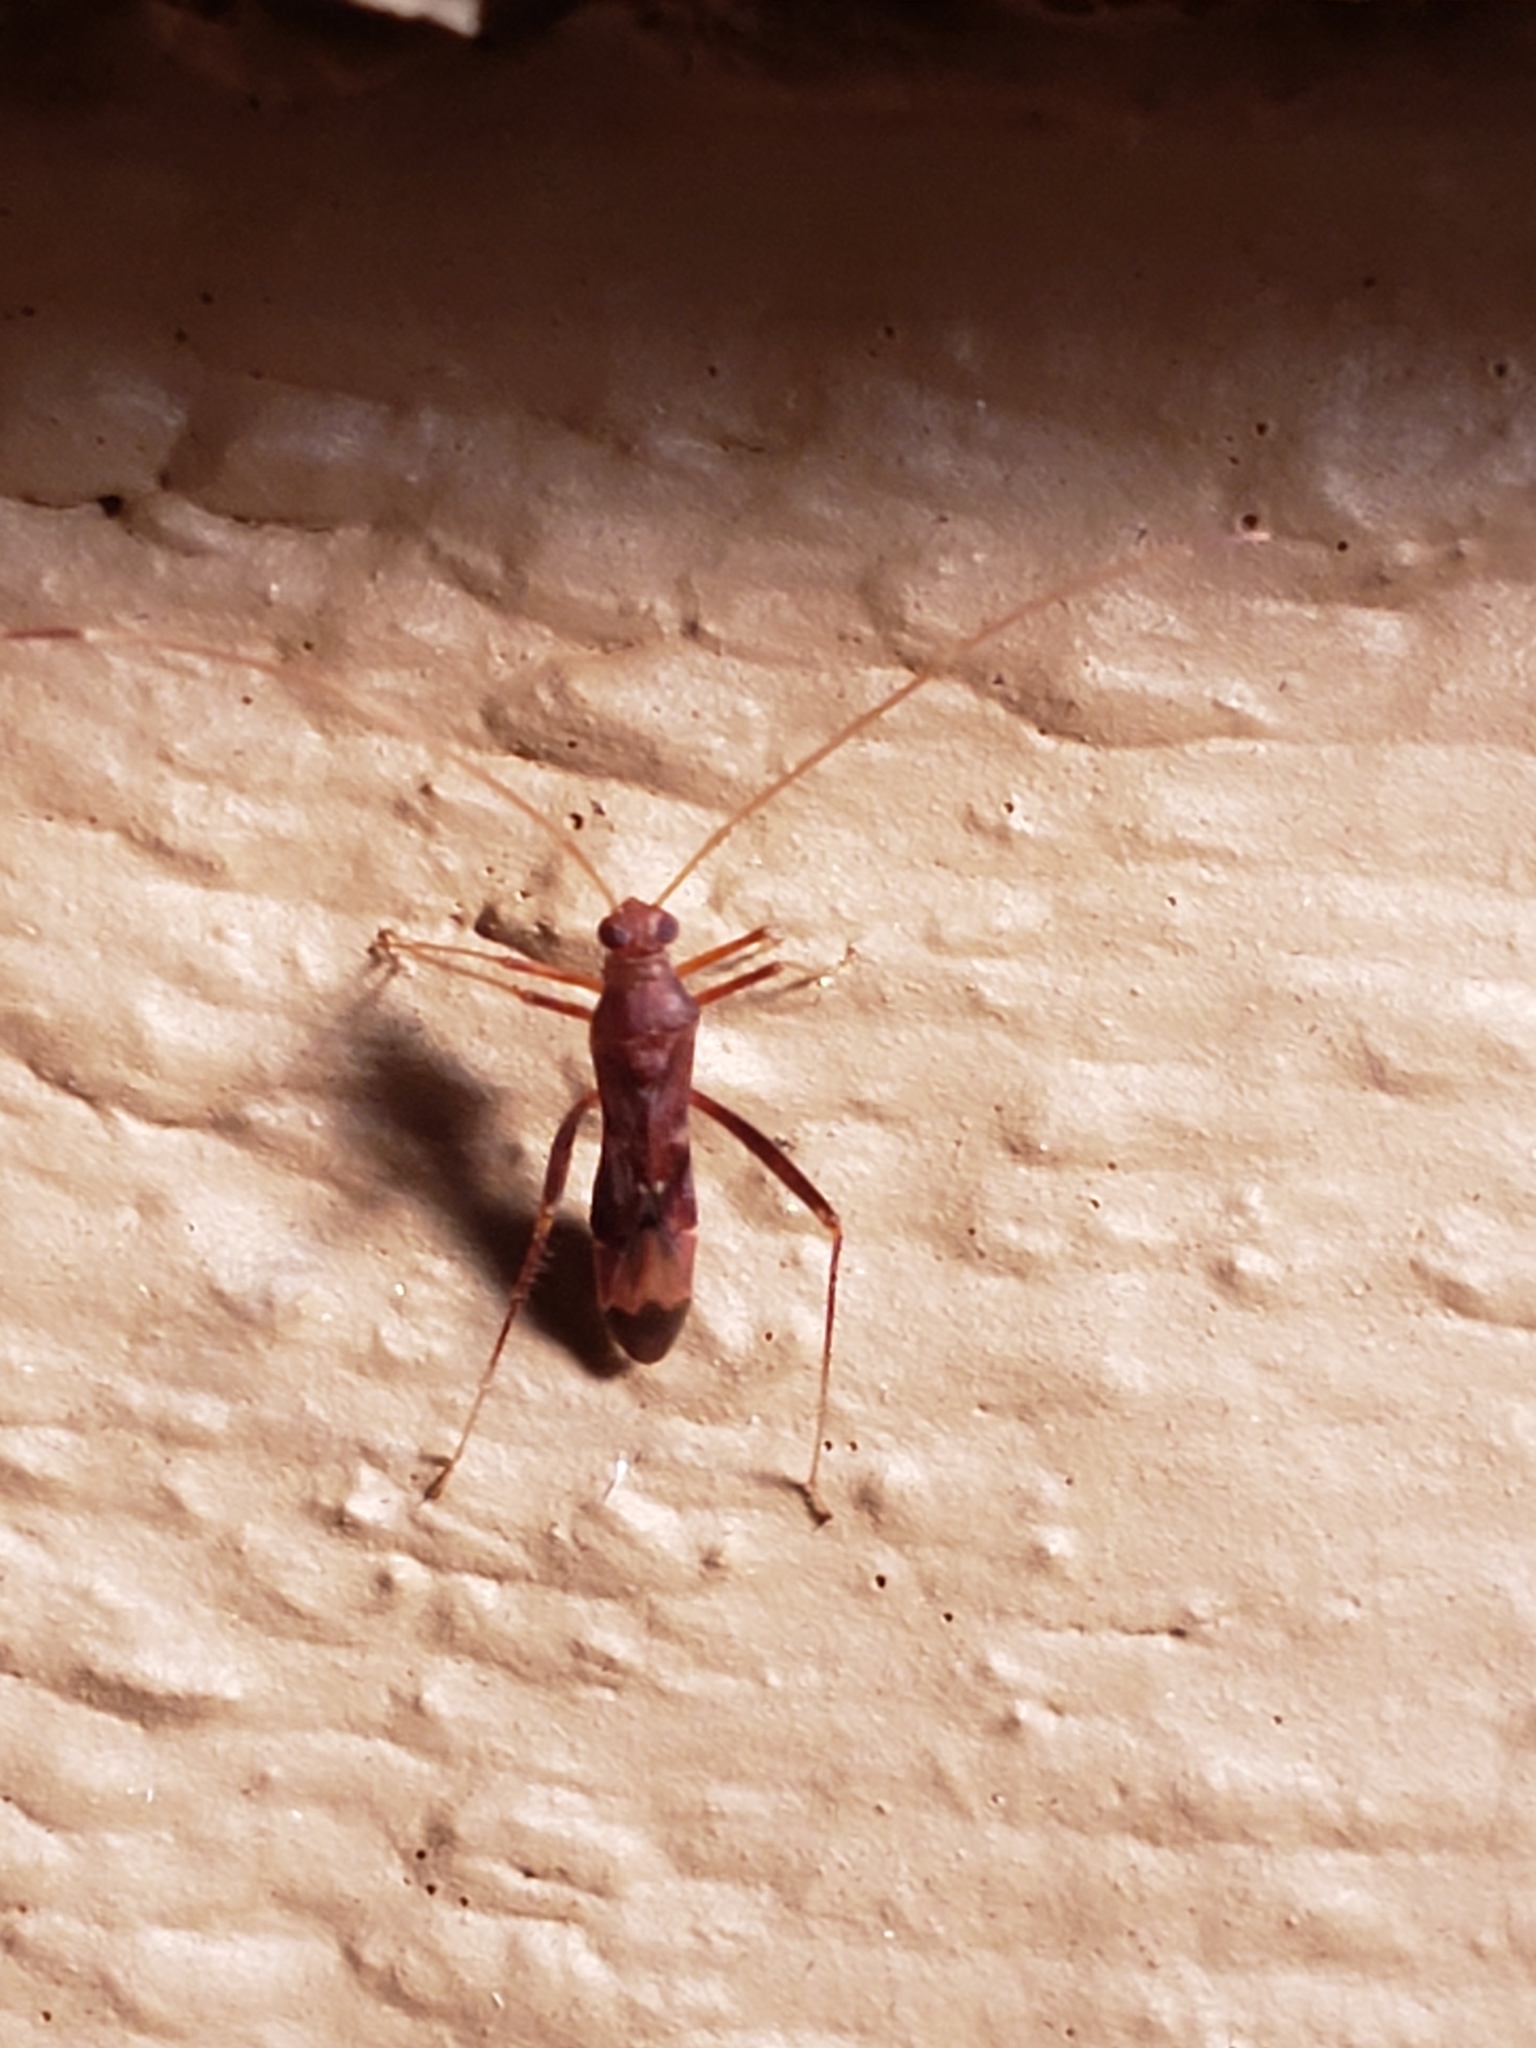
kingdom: Animalia
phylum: Arthropoda
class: Insecta
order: Hemiptera
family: Miridae
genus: Paraxenetus
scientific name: Paraxenetus guttulatus
